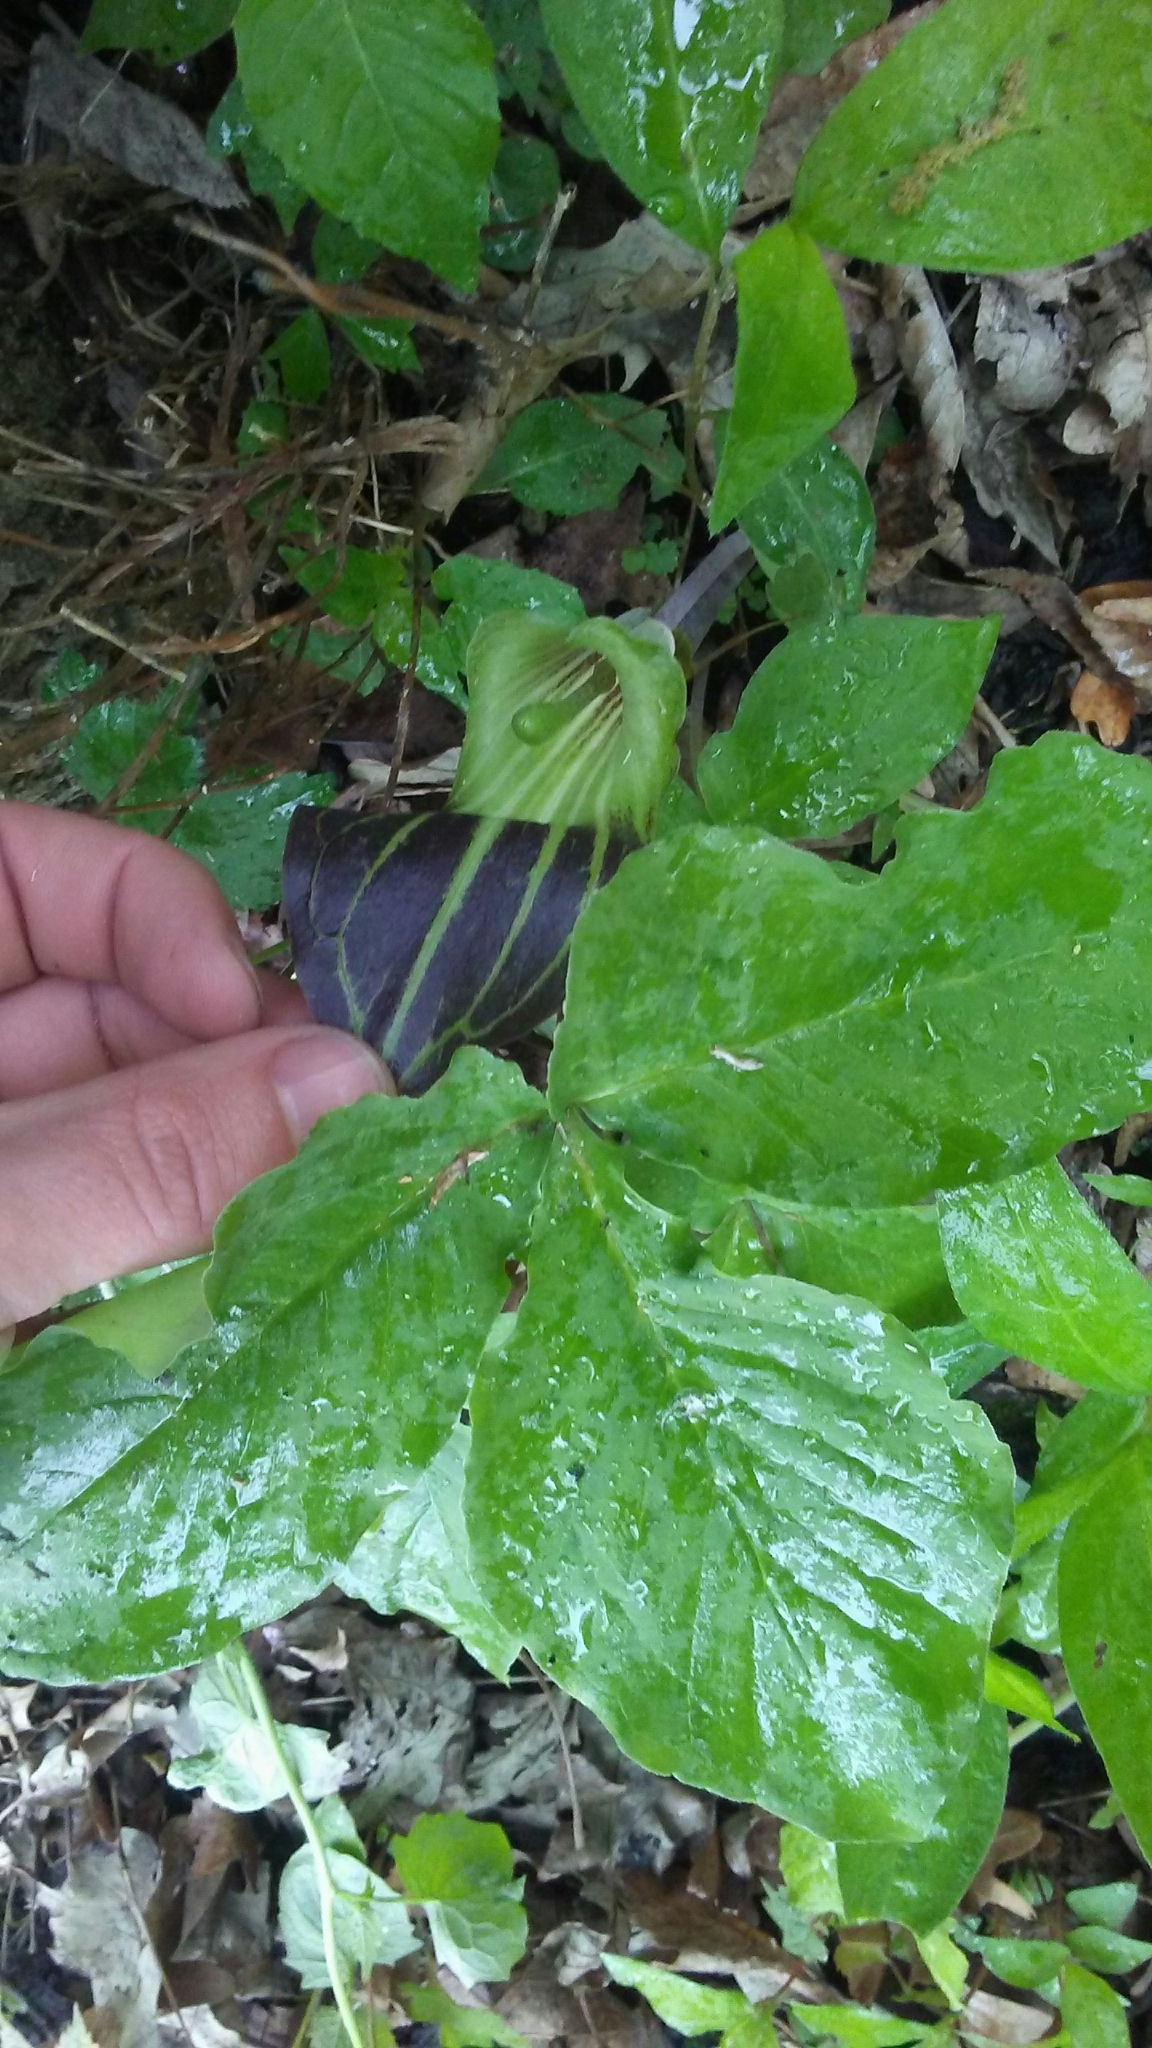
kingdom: Plantae
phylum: Tracheophyta
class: Liliopsida
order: Alismatales
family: Araceae
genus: Arisaema
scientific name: Arisaema triphyllum
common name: Jack-in-the-pulpit
